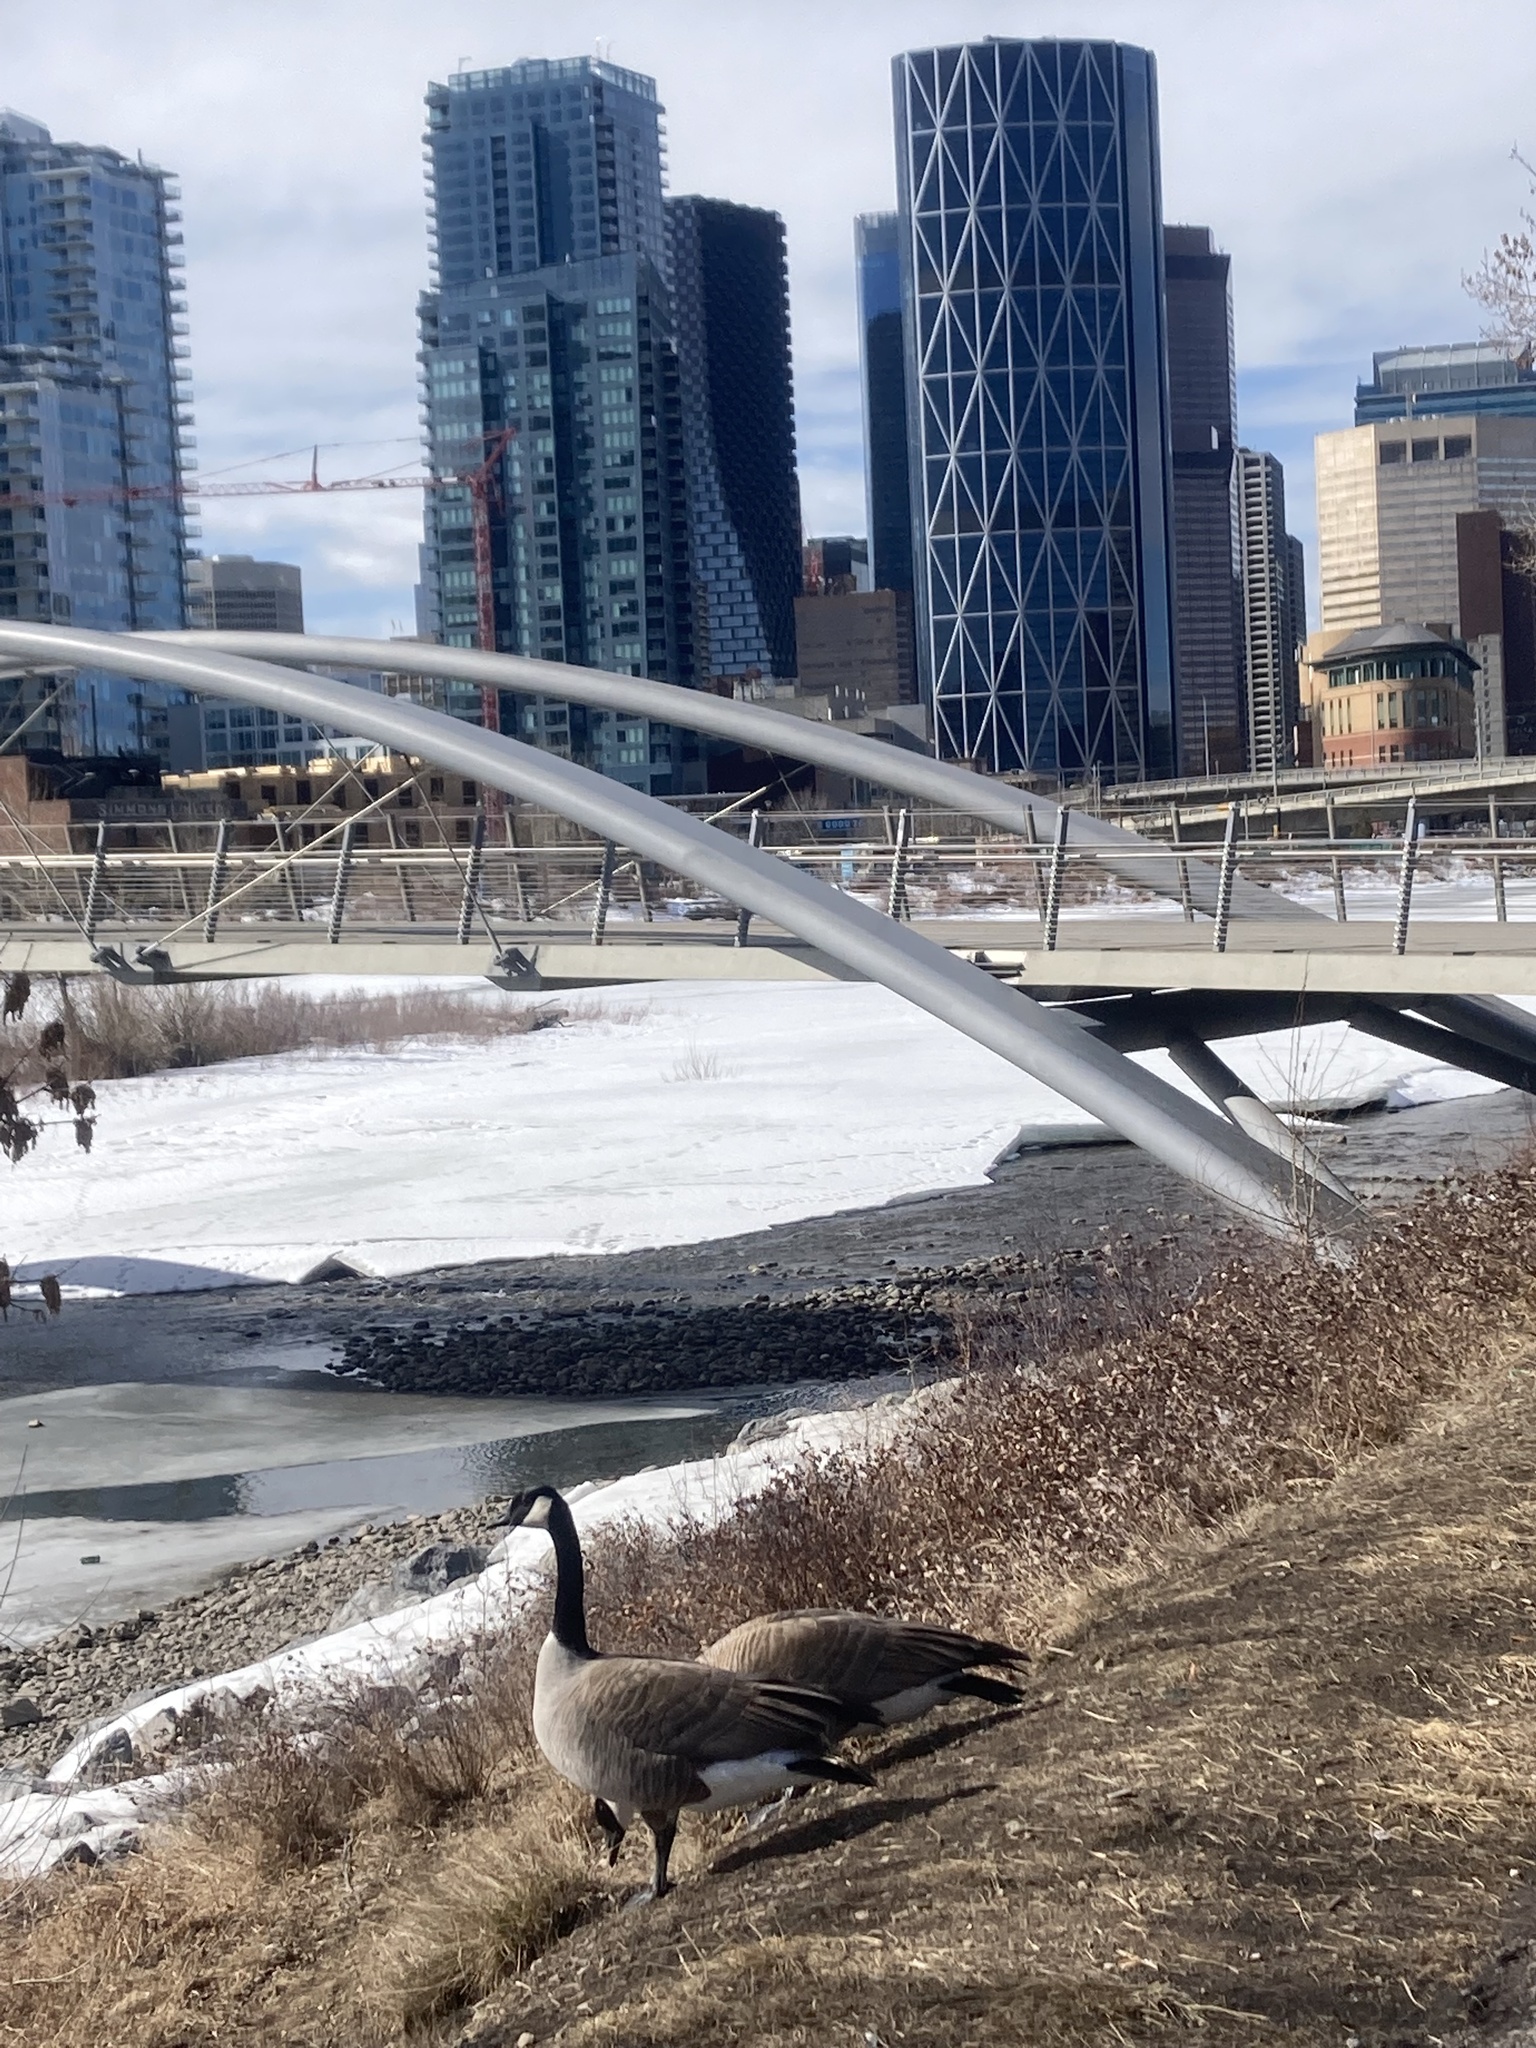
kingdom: Animalia
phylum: Chordata
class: Aves
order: Anseriformes
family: Anatidae
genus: Branta
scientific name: Branta canadensis
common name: Canada goose
